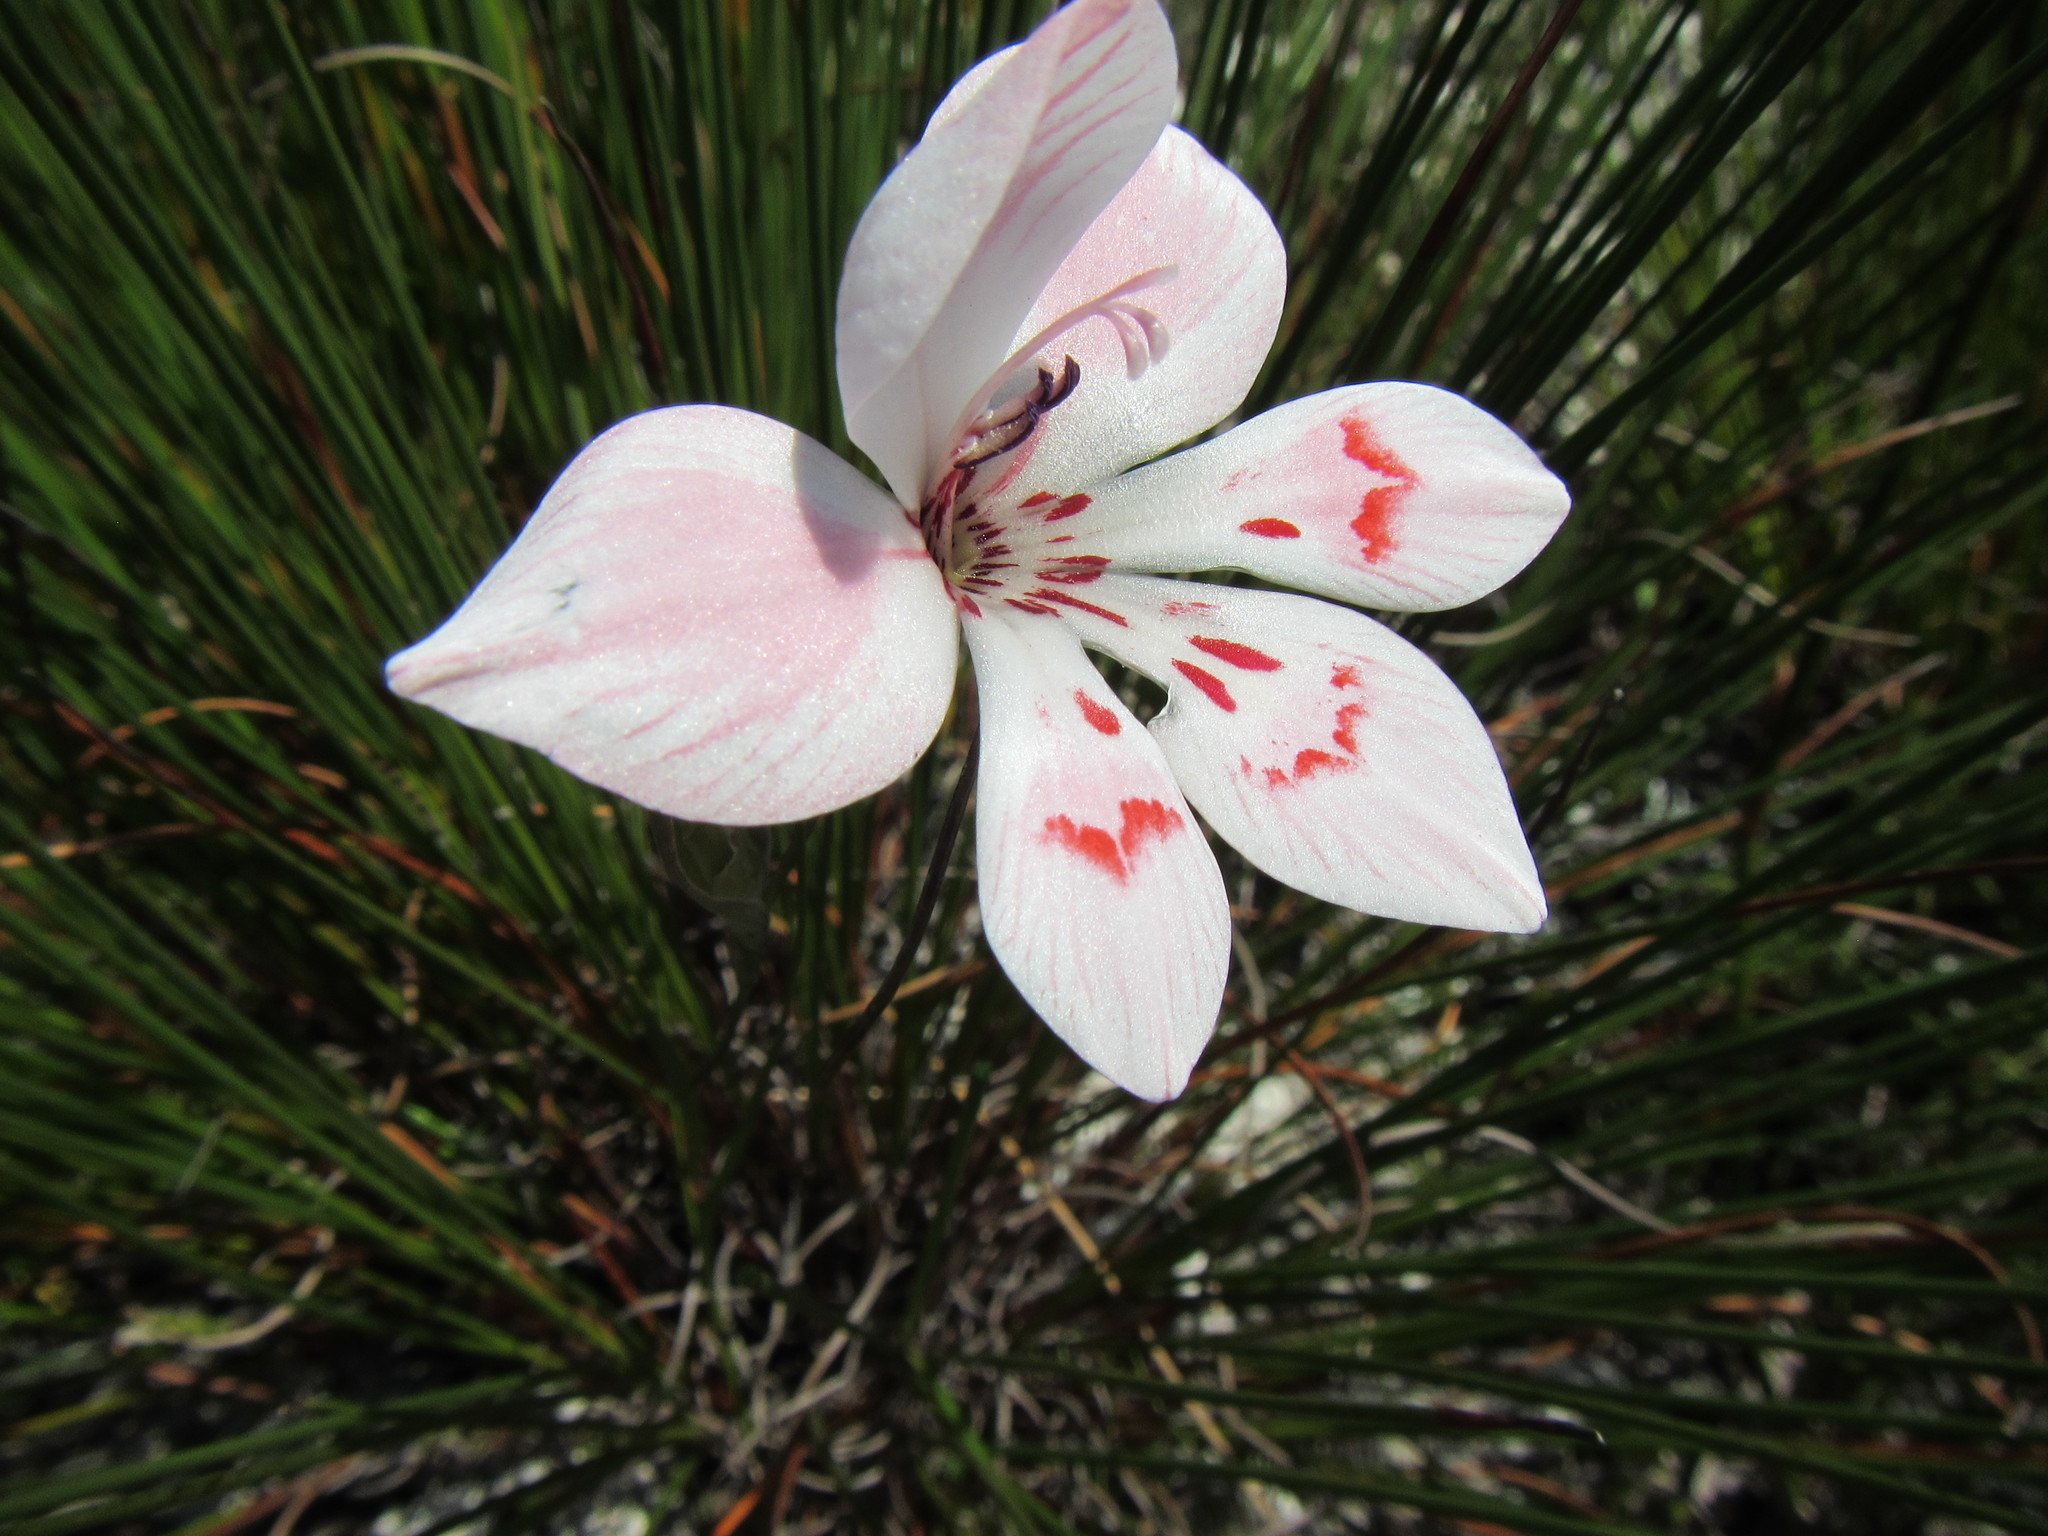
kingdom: Plantae
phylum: Tracheophyta
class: Liliopsida
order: Asparagales
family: Iridaceae
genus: Gladiolus
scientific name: Gladiolus debilis
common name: Painted-lady
